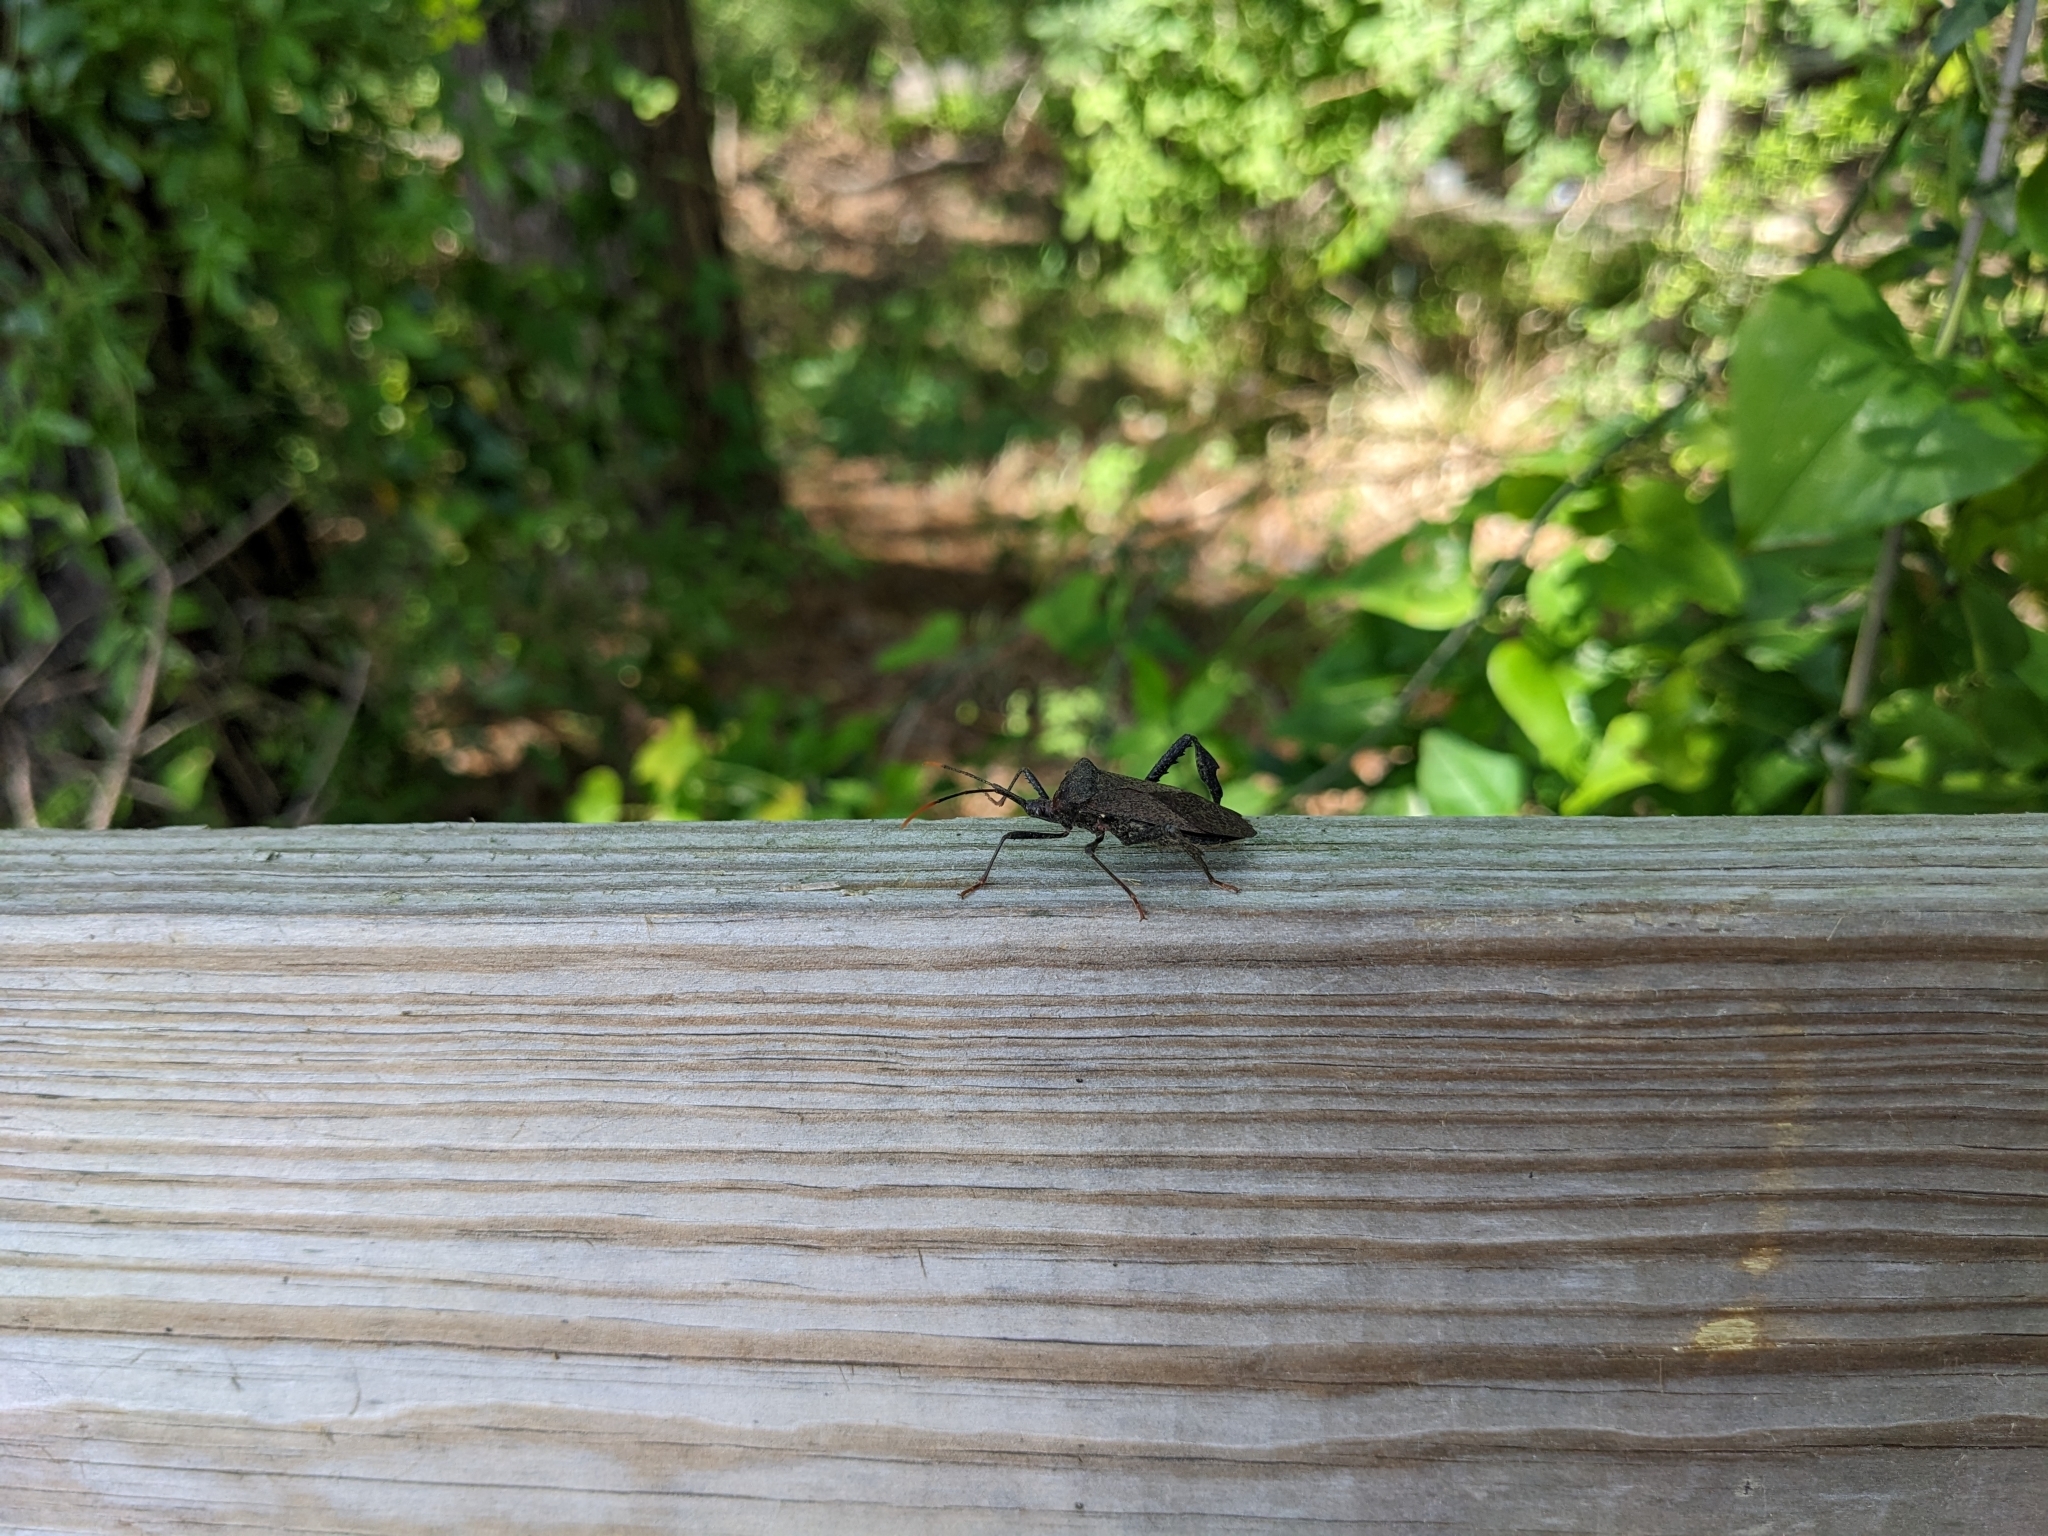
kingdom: Animalia
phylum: Arthropoda
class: Insecta
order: Hemiptera
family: Coreidae
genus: Acanthocephala
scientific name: Acanthocephala terminalis
